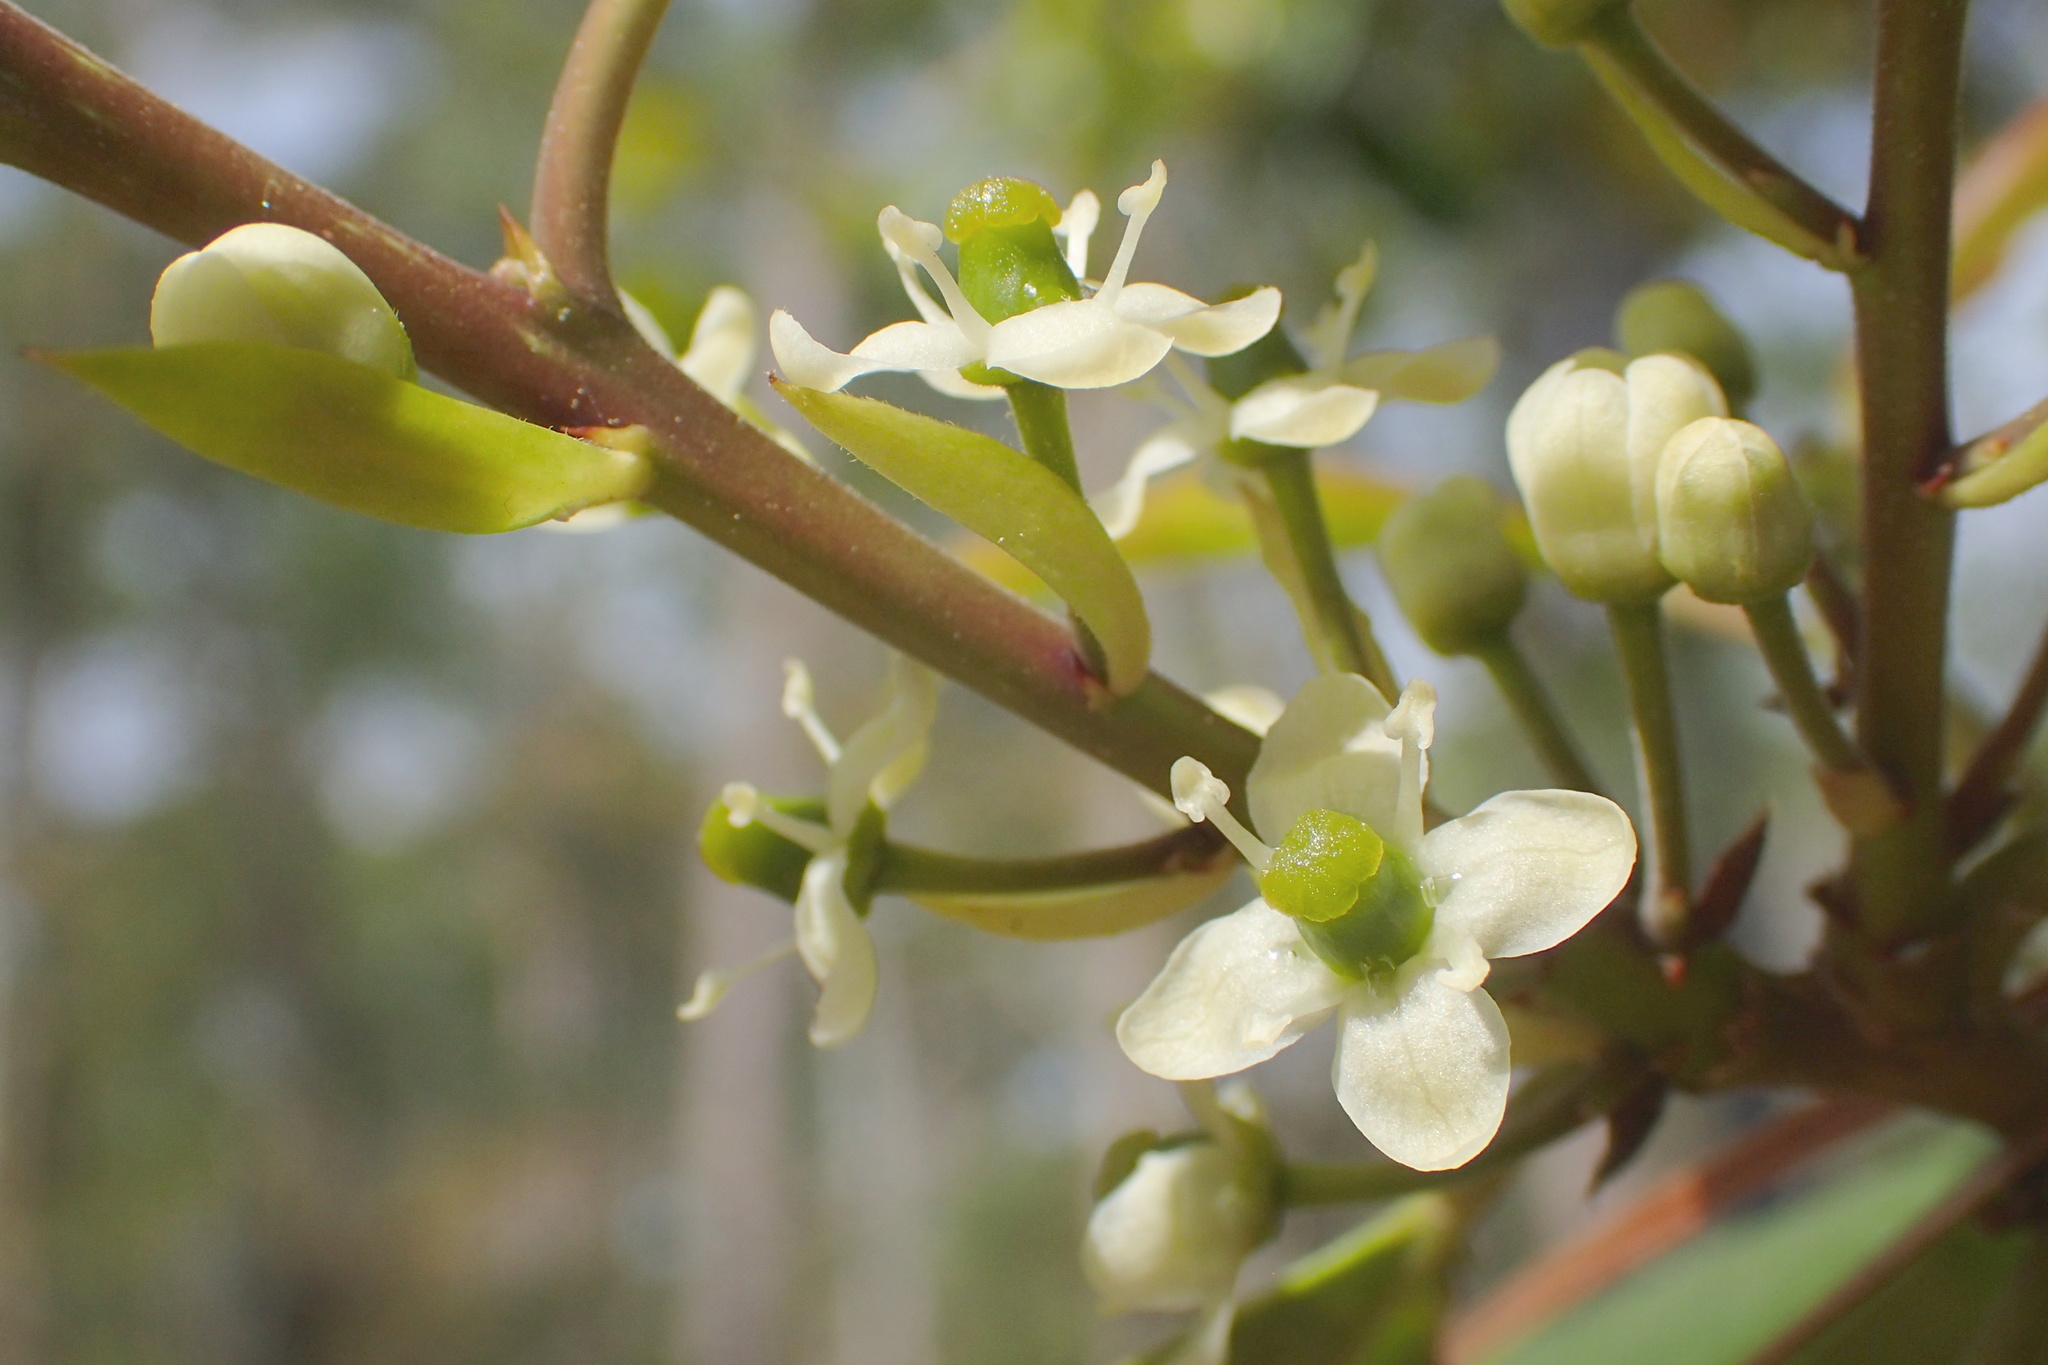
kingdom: Plantae
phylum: Tracheophyta
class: Magnoliopsida
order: Aquifoliales
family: Aquifoliaceae
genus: Ilex
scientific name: Ilex opaca
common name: American holly
